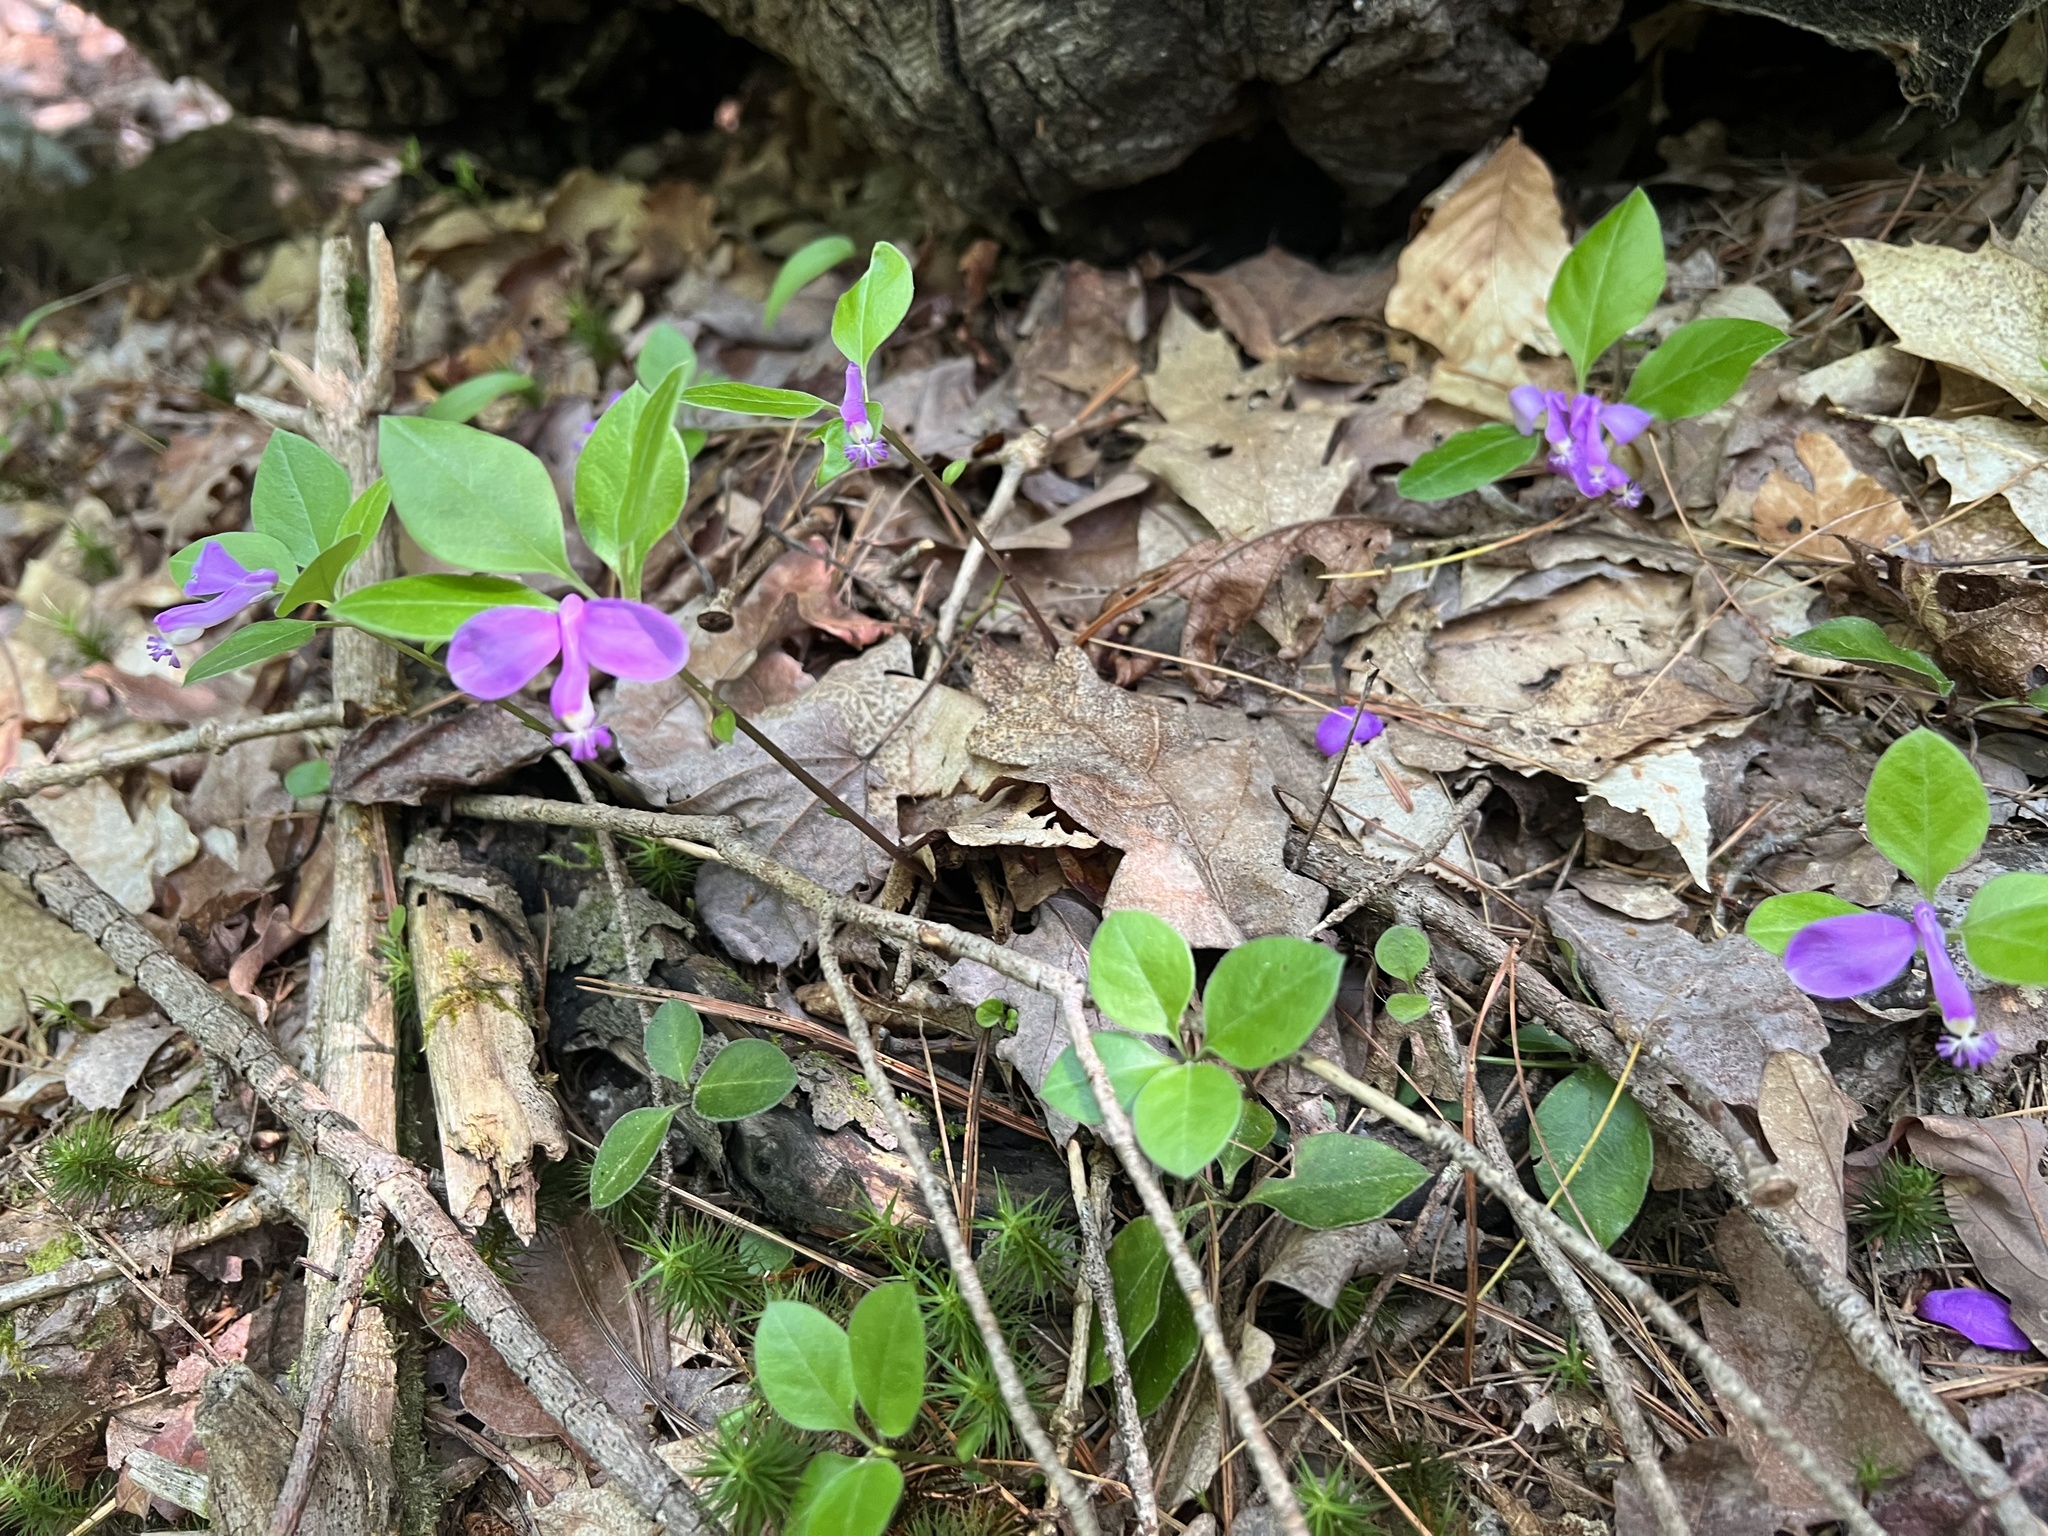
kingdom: Plantae
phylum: Tracheophyta
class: Magnoliopsida
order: Fabales
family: Polygalaceae
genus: Polygaloides
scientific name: Polygaloides paucifolia
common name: Bird-on-the-wing
